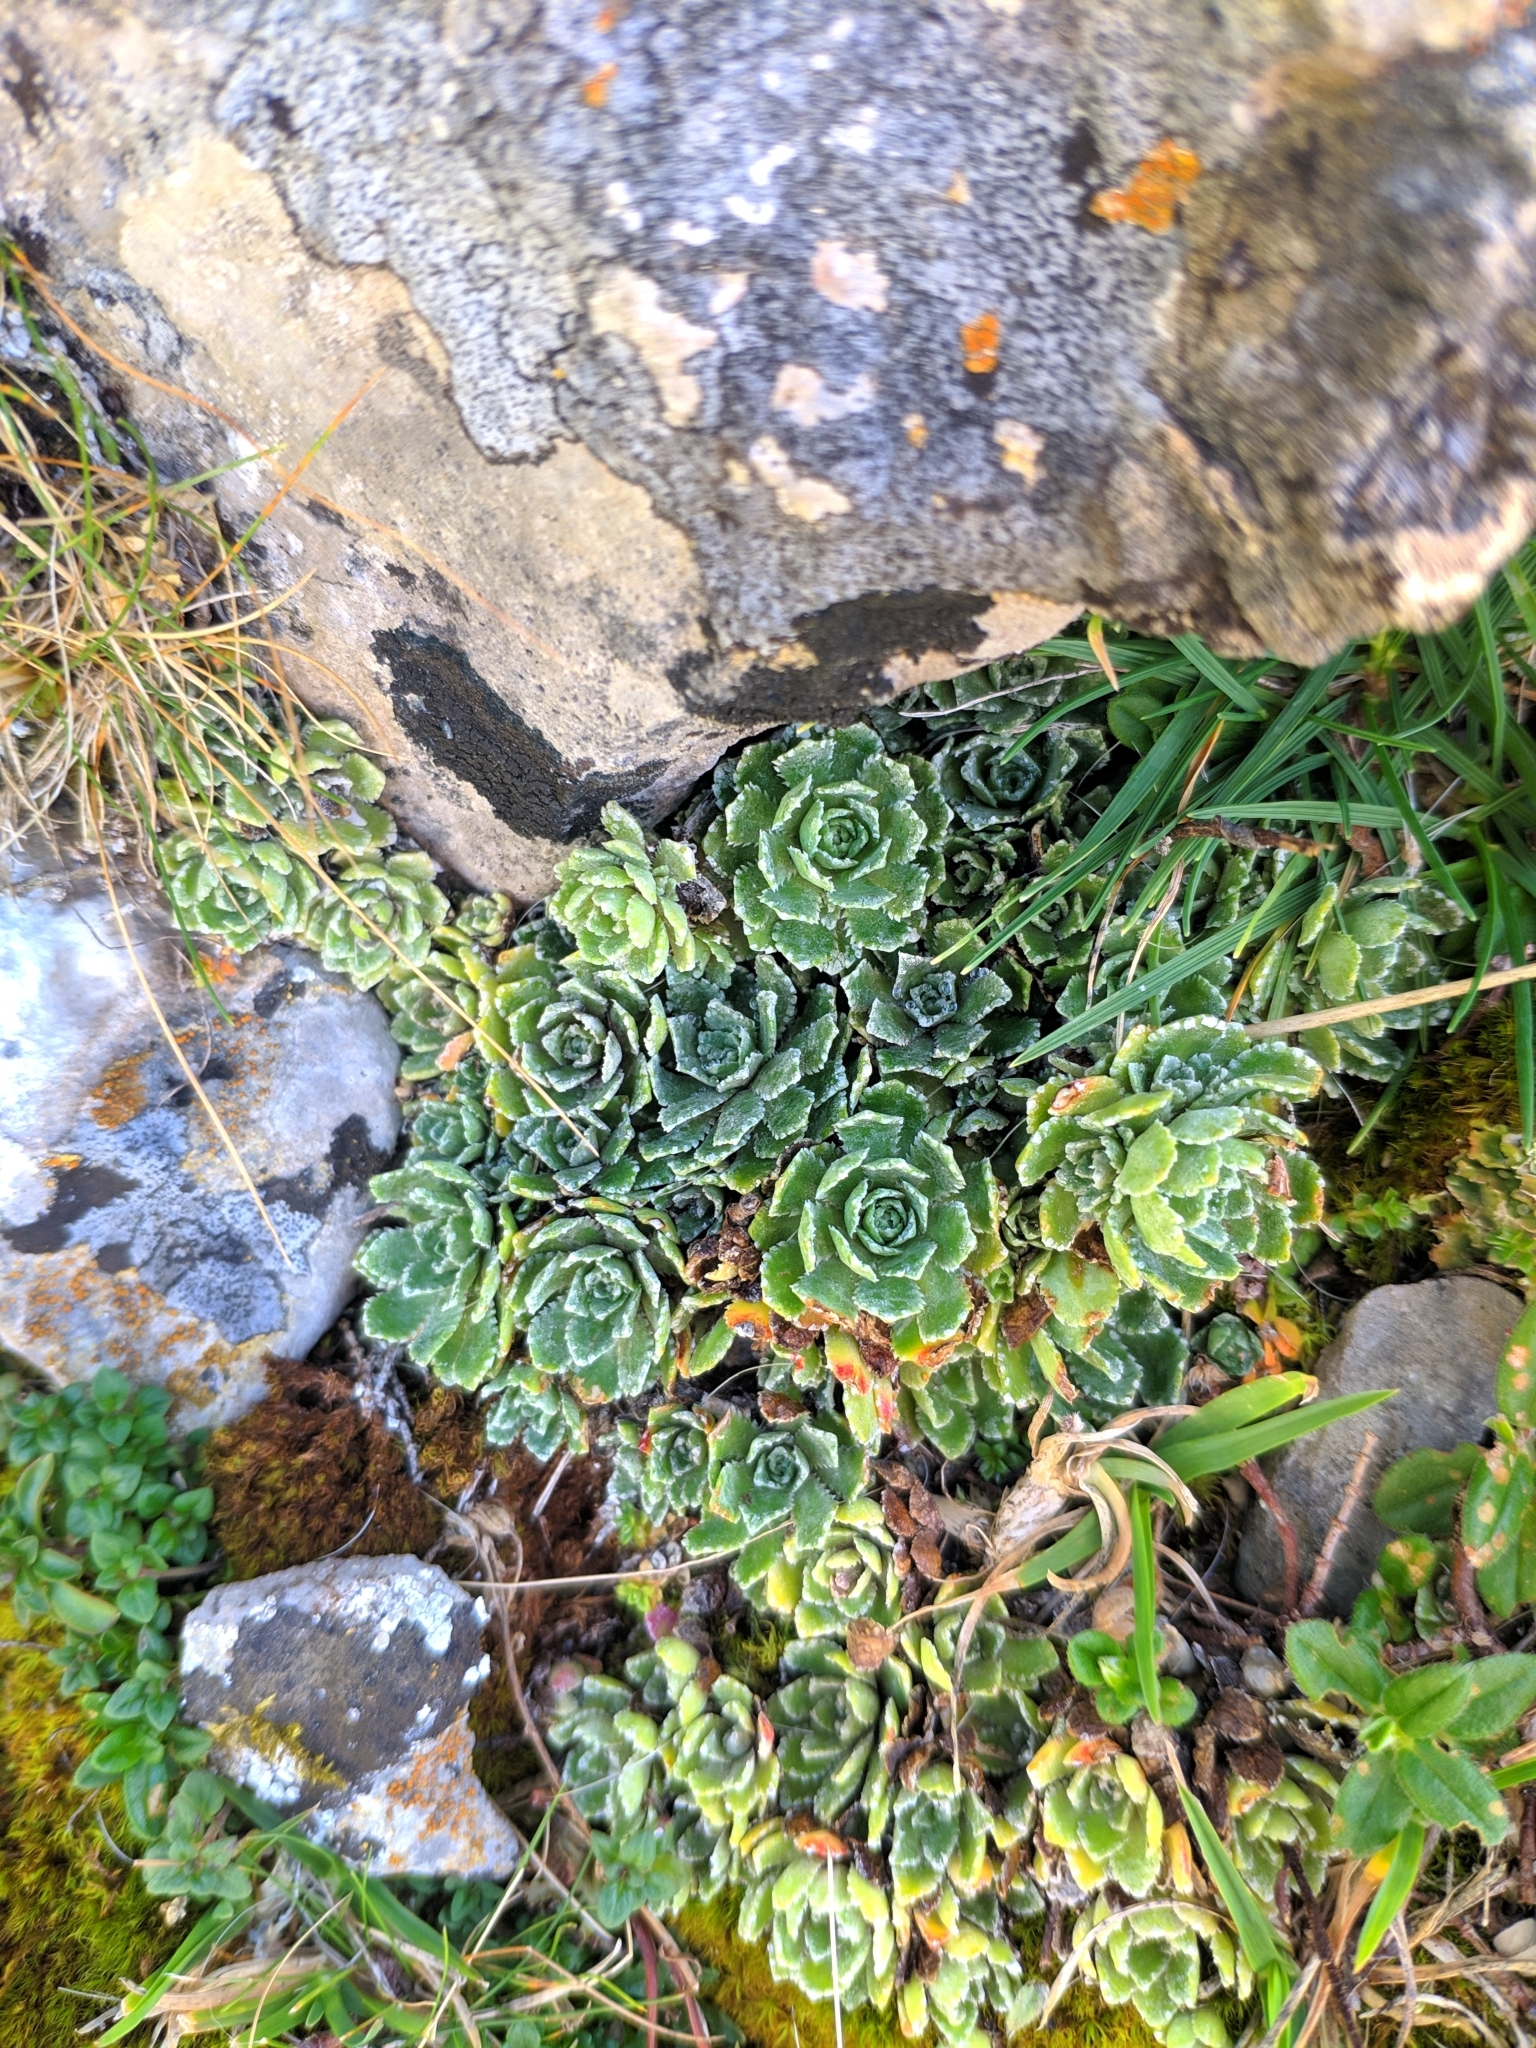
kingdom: Plantae
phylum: Tracheophyta
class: Magnoliopsida
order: Saxifragales
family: Saxifragaceae
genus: Saxifraga
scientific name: Saxifraga paniculata
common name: Livelong saxifrage
